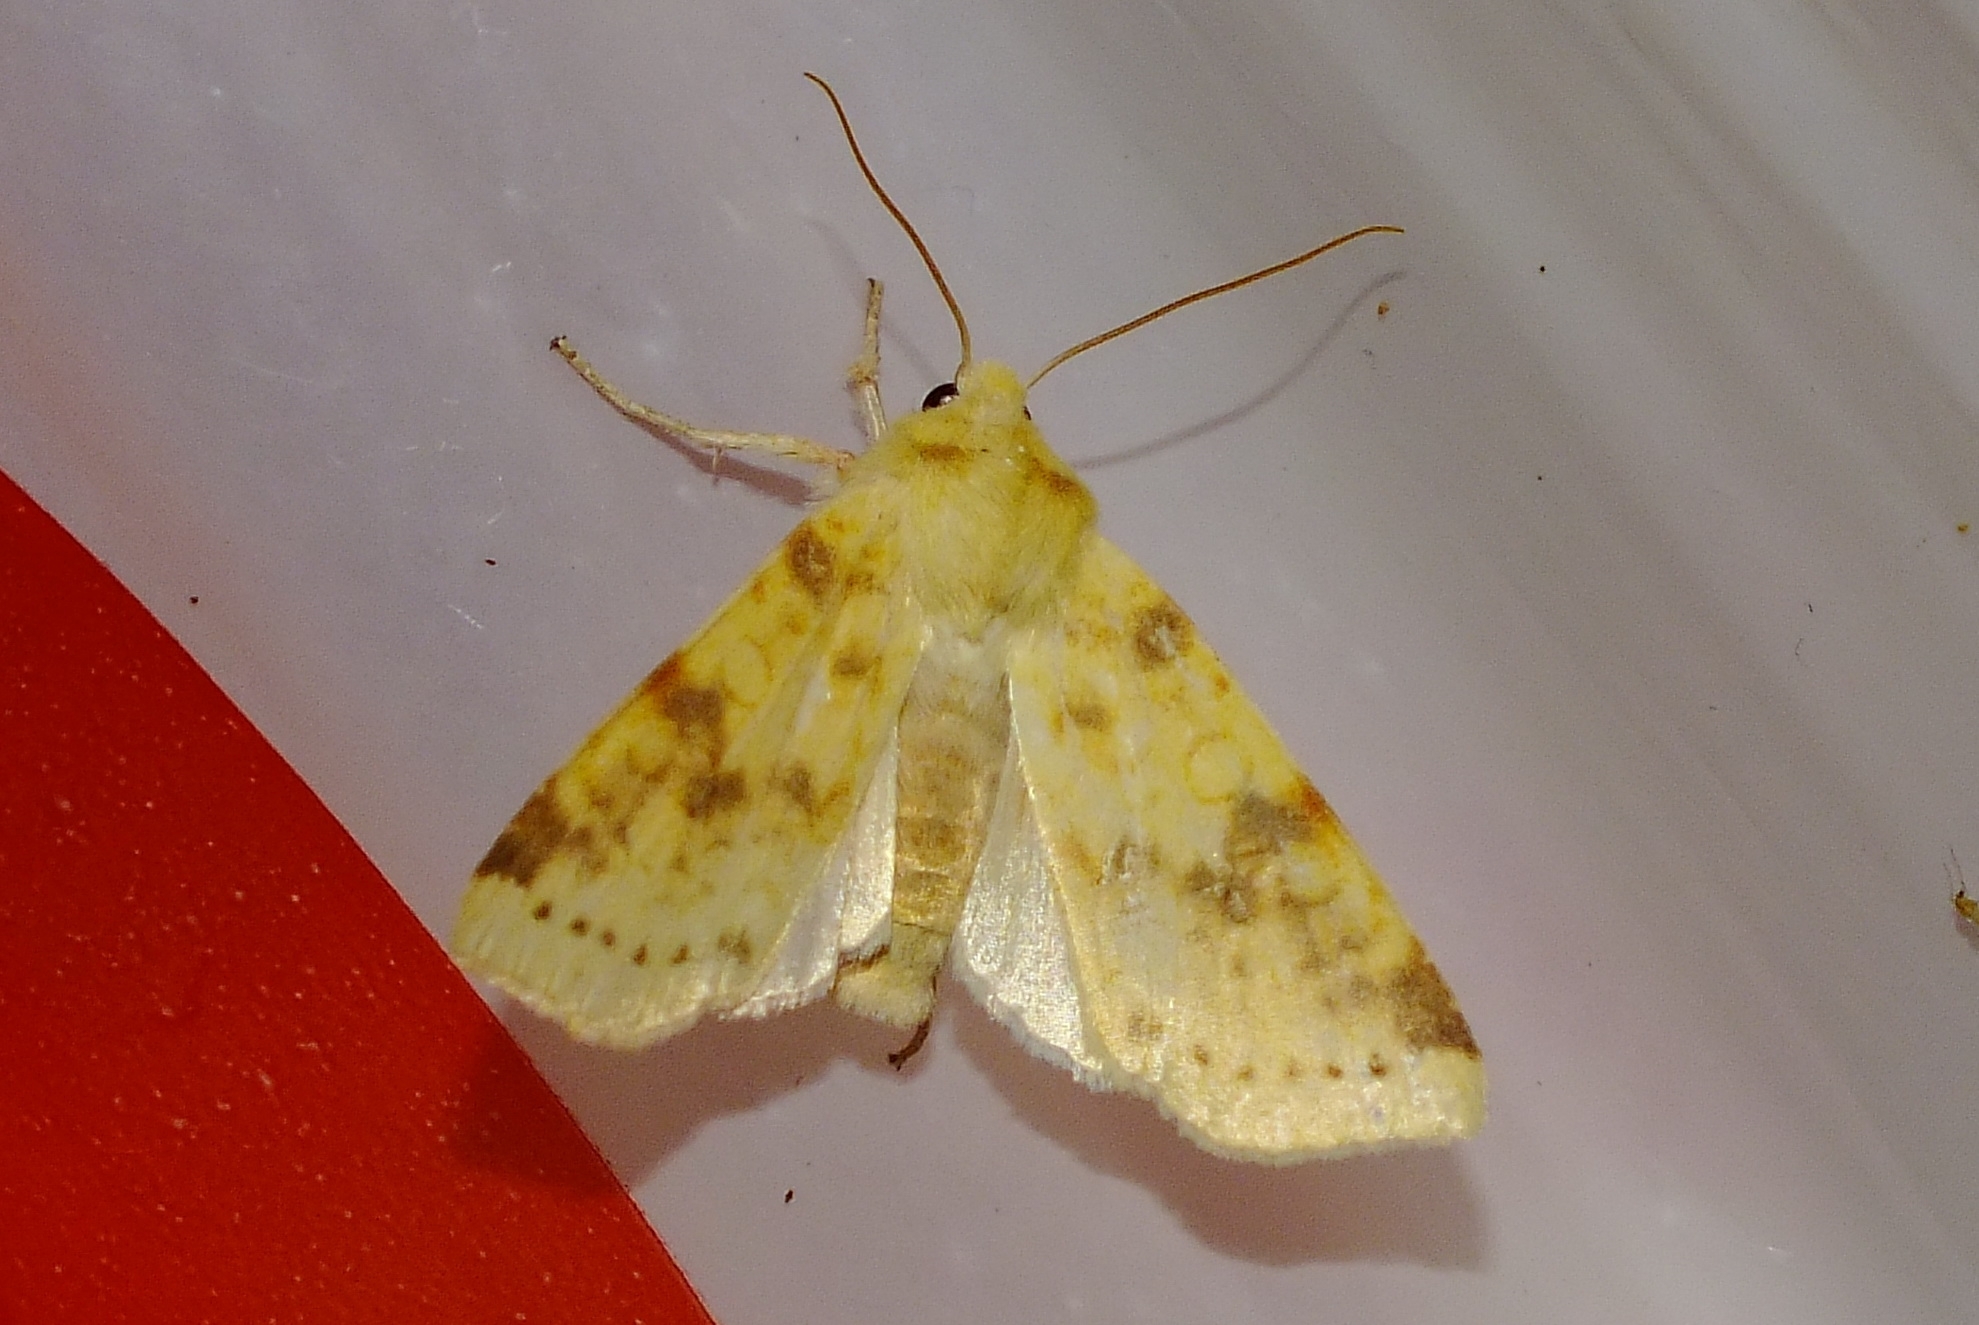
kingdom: Animalia
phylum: Arthropoda
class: Insecta
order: Lepidoptera
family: Noctuidae
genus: Xanthia
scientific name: Xanthia icteritia
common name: The sallow
